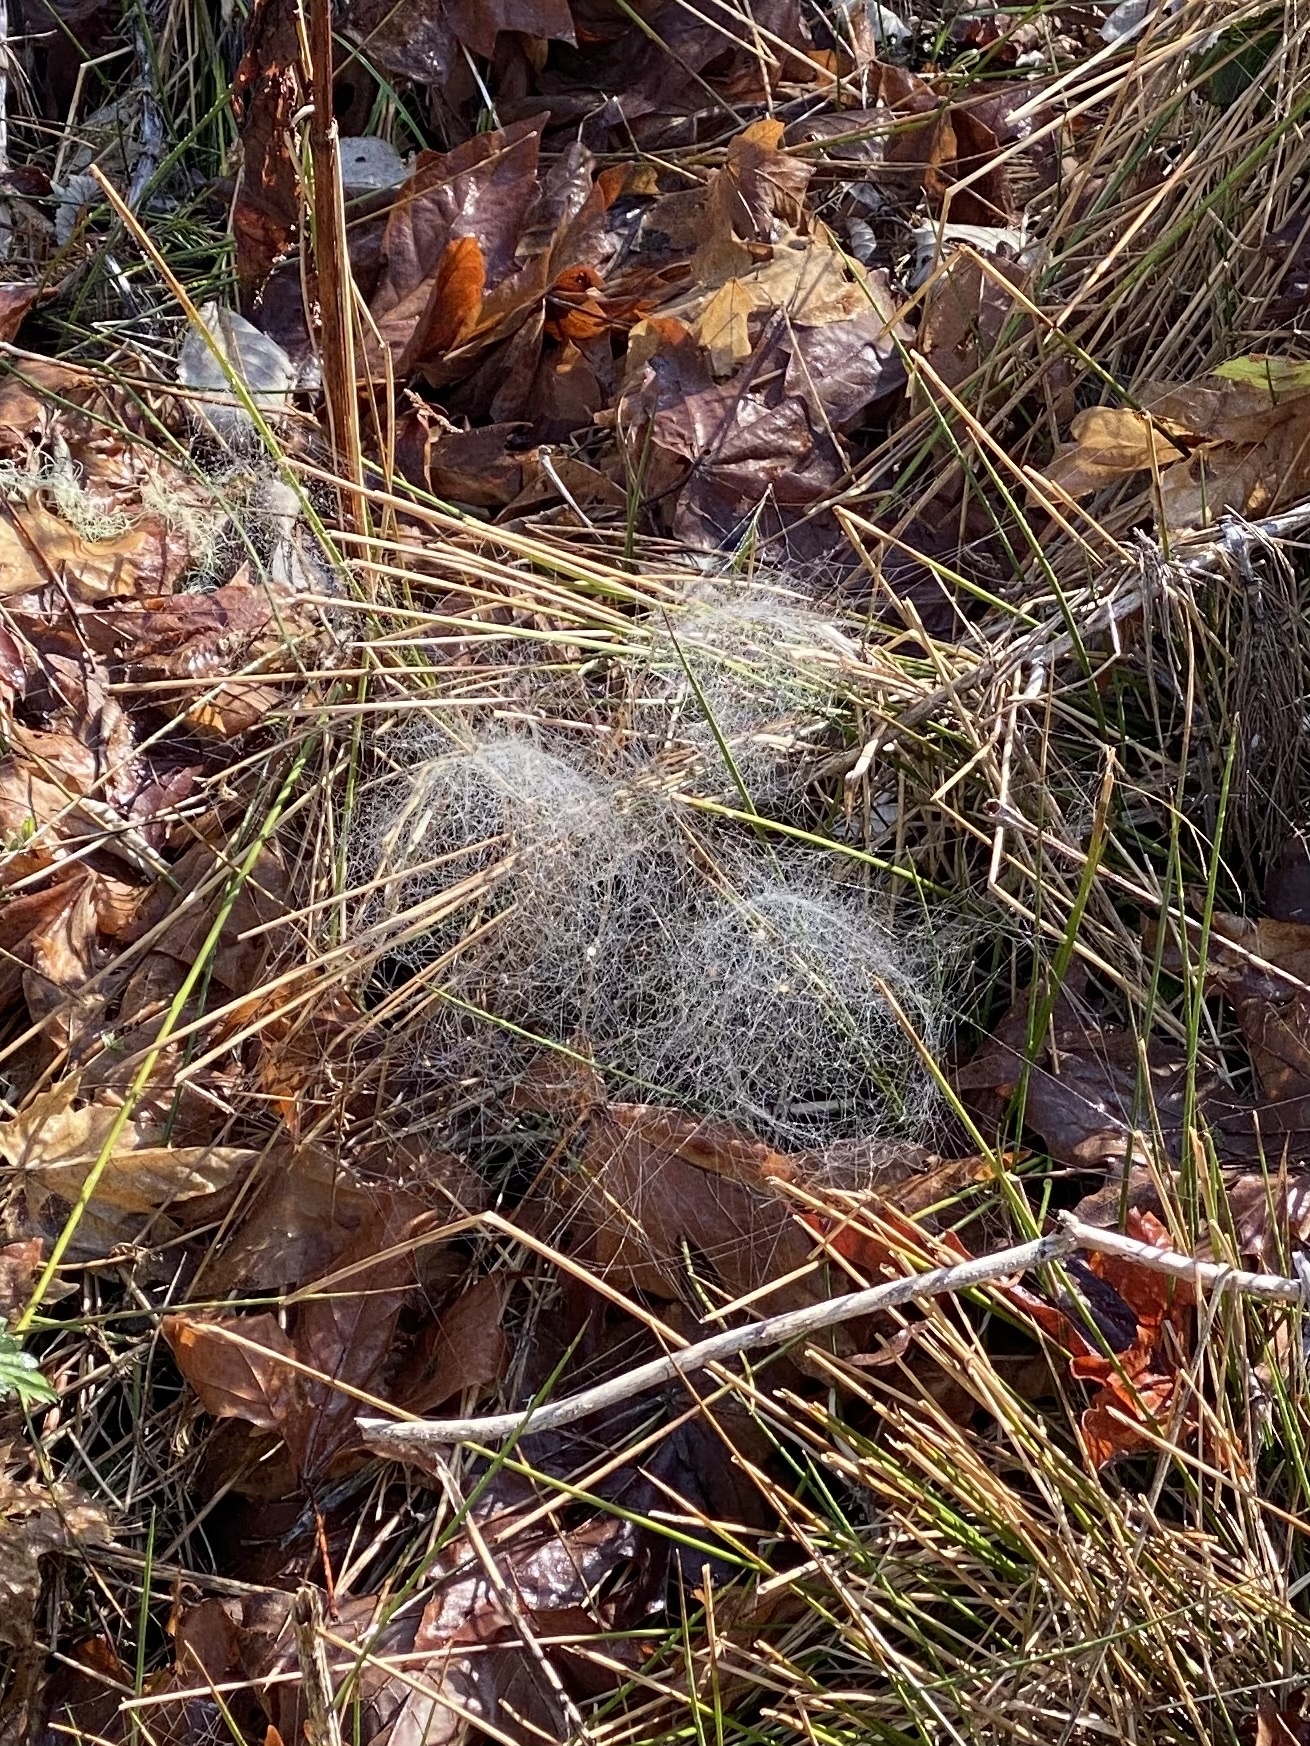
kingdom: Animalia
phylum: Arthropoda
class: Arachnida
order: Araneae
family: Linyphiidae
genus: Neriene
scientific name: Neriene radiata
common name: Filmy dome spider
